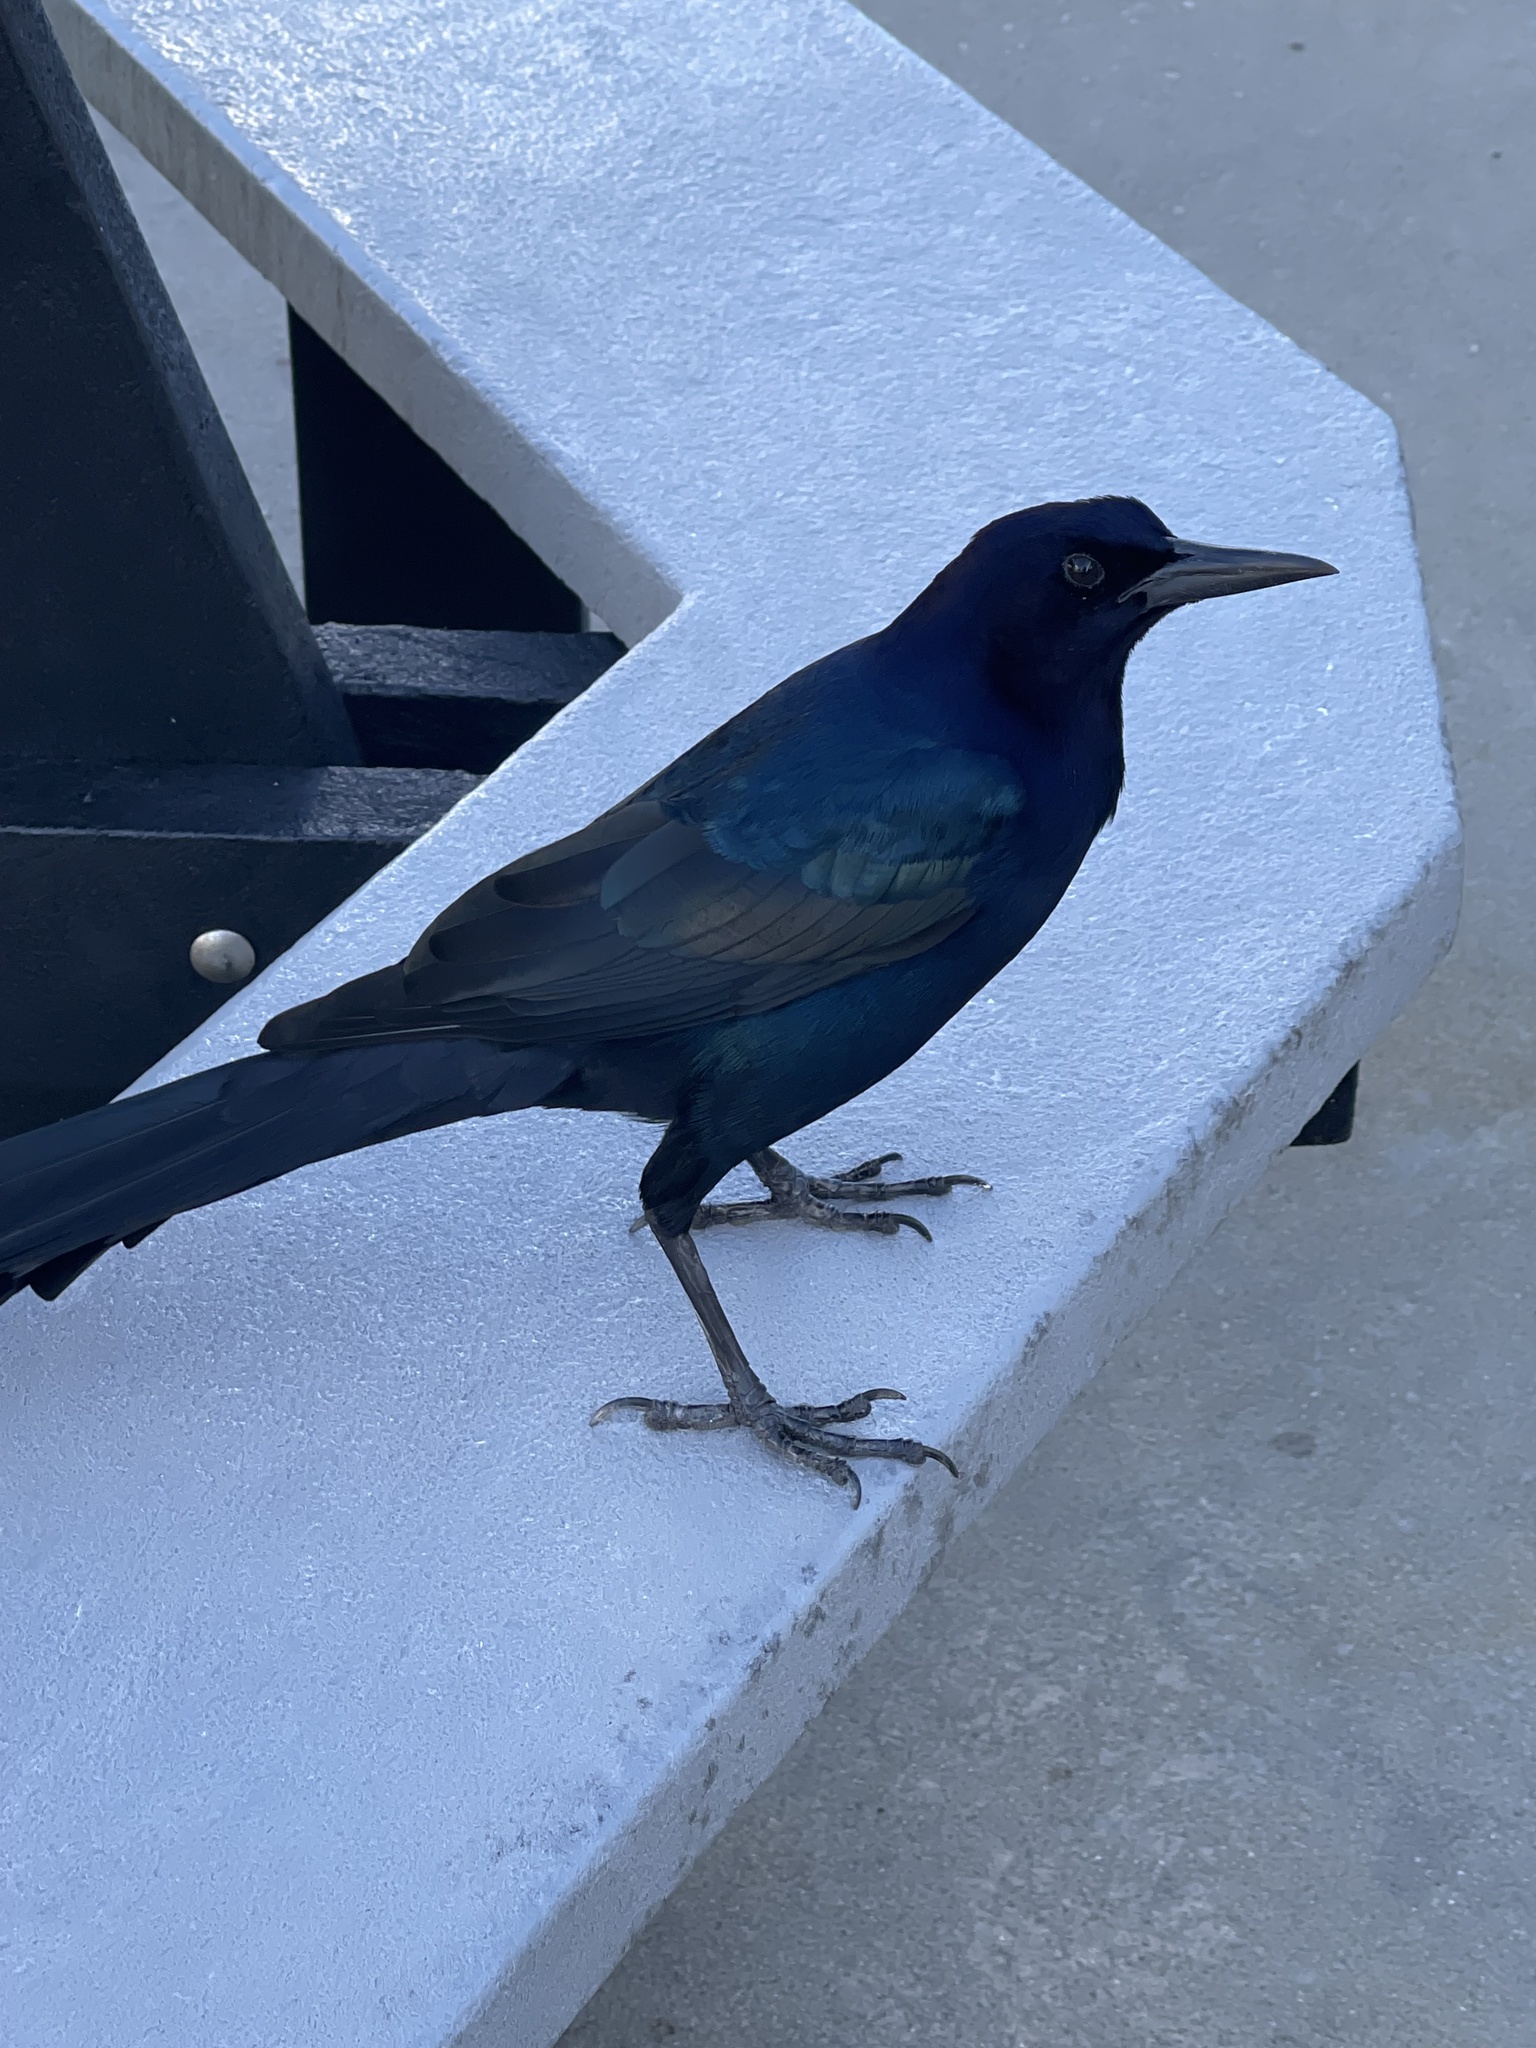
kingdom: Animalia
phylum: Chordata
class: Aves
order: Passeriformes
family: Icteridae
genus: Quiscalus
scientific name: Quiscalus major
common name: Boat-tailed grackle
